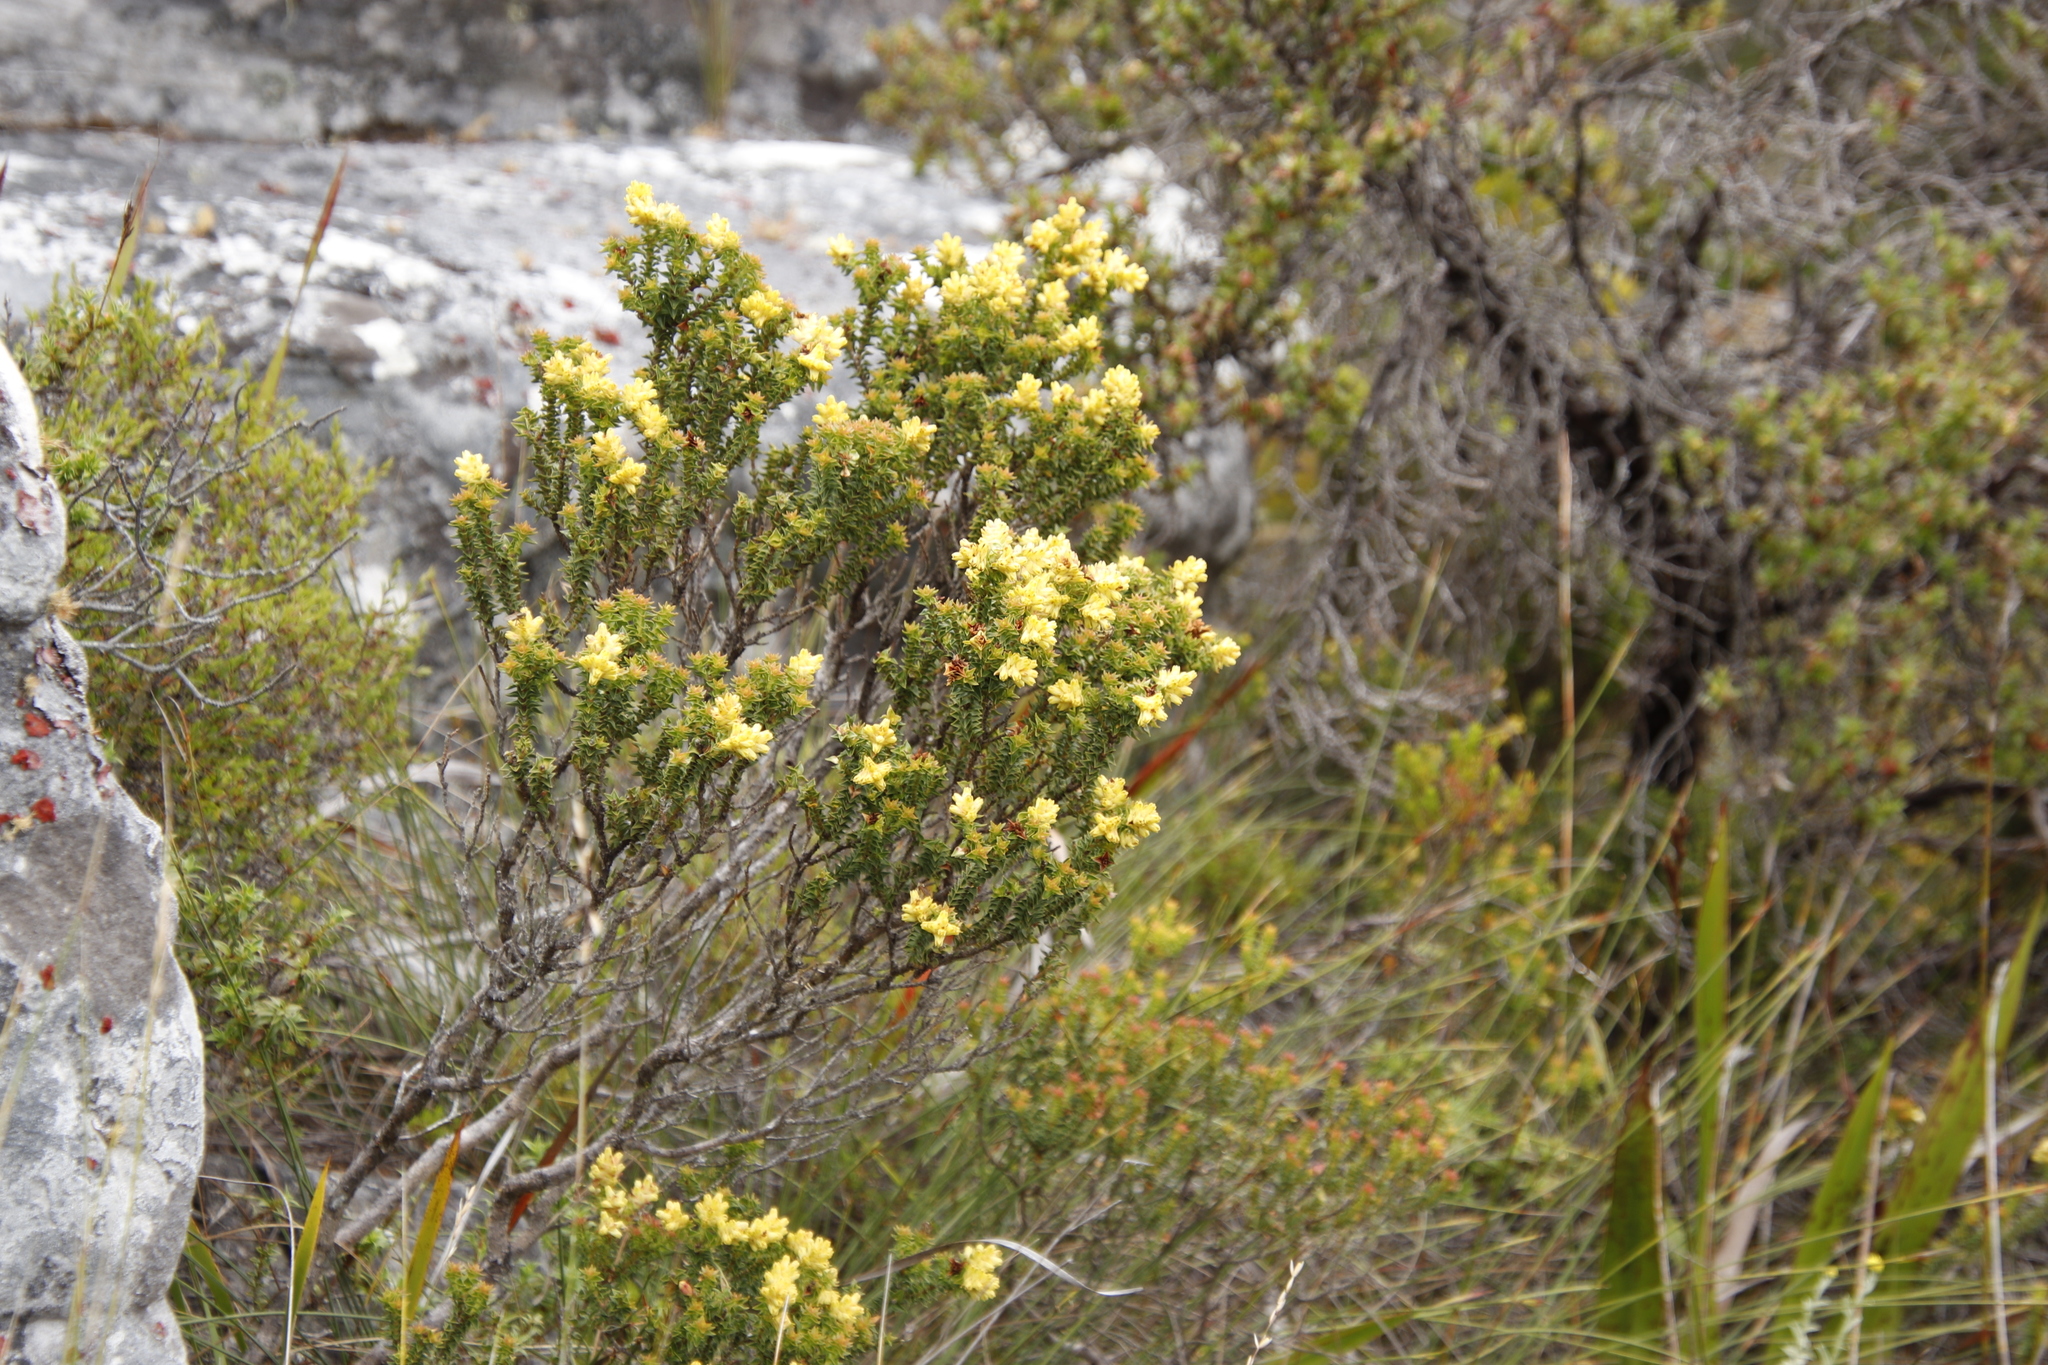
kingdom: Plantae
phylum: Tracheophyta
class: Magnoliopsida
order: Myrtales
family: Penaeaceae
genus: Penaea
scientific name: Penaea mucronata
